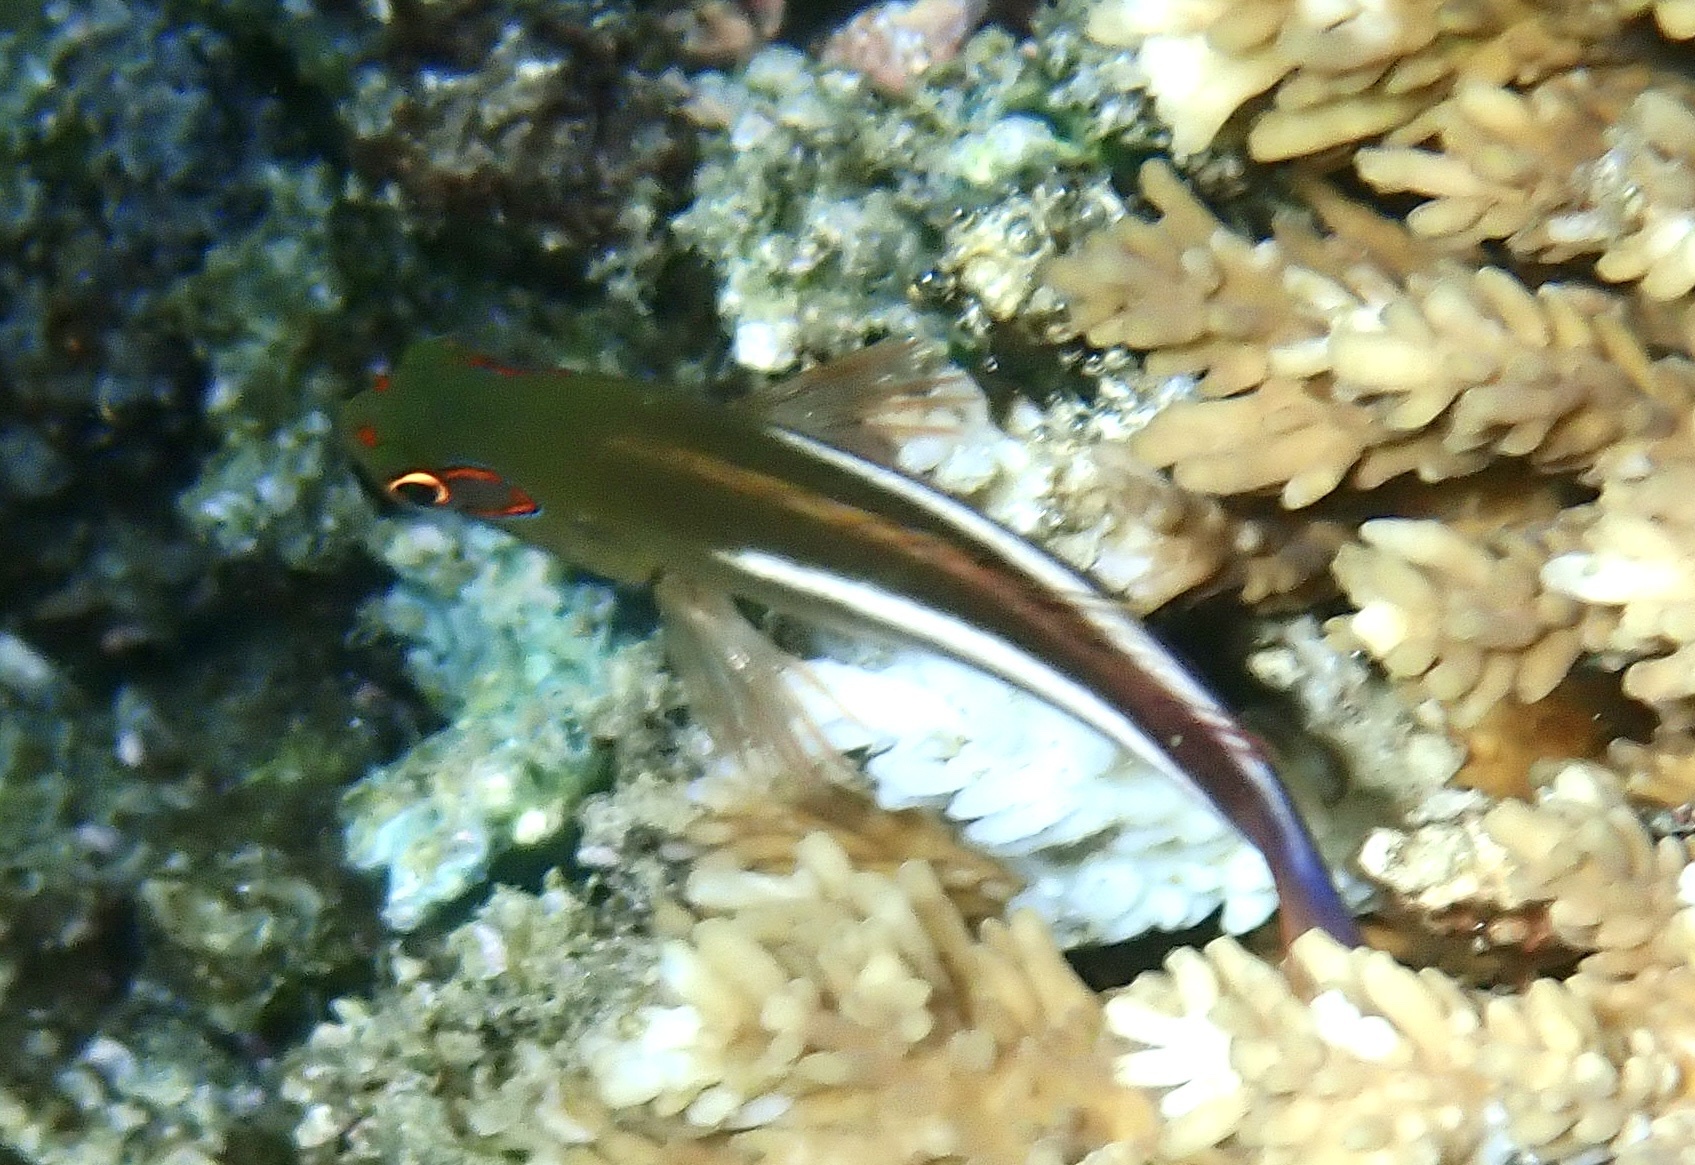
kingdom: Animalia
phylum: Chordata
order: Perciformes
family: Cirrhitidae
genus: Paracirrhites
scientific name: Paracirrhites arcatus
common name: Arc-eye hawkfish
